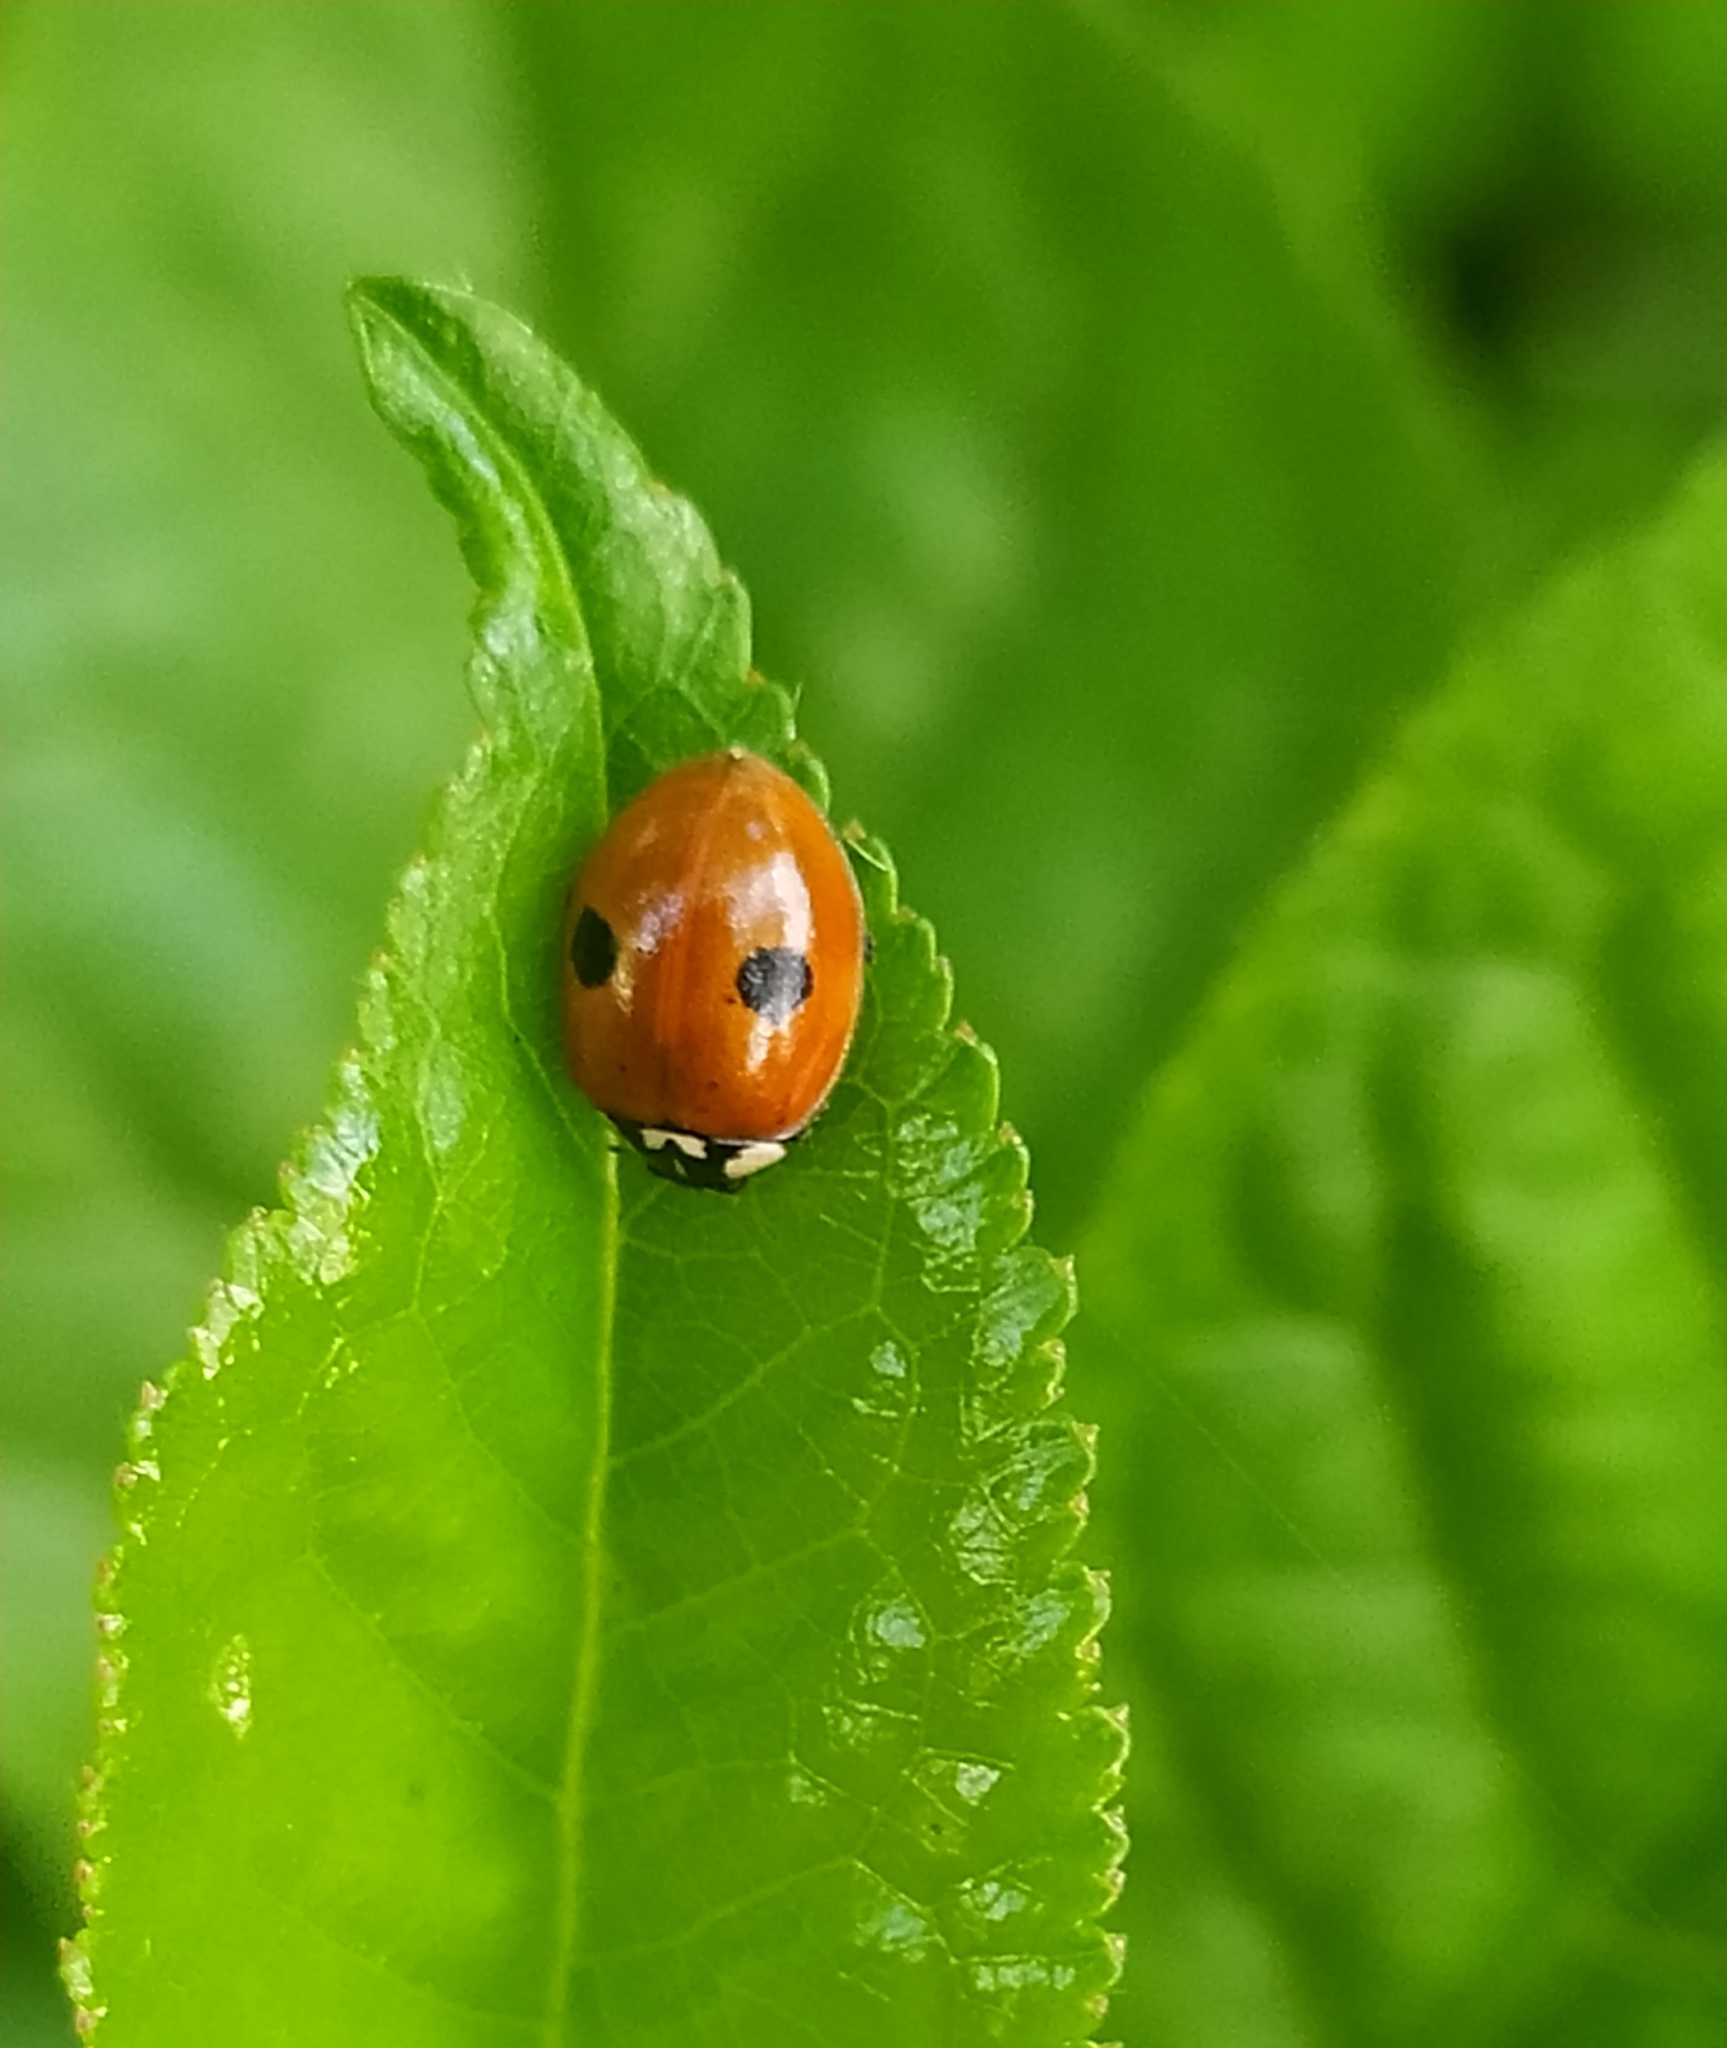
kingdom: Animalia
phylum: Arthropoda
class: Insecta
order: Coleoptera
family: Coccinellidae
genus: Adalia
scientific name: Adalia bipunctata
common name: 2-spot ladybird
